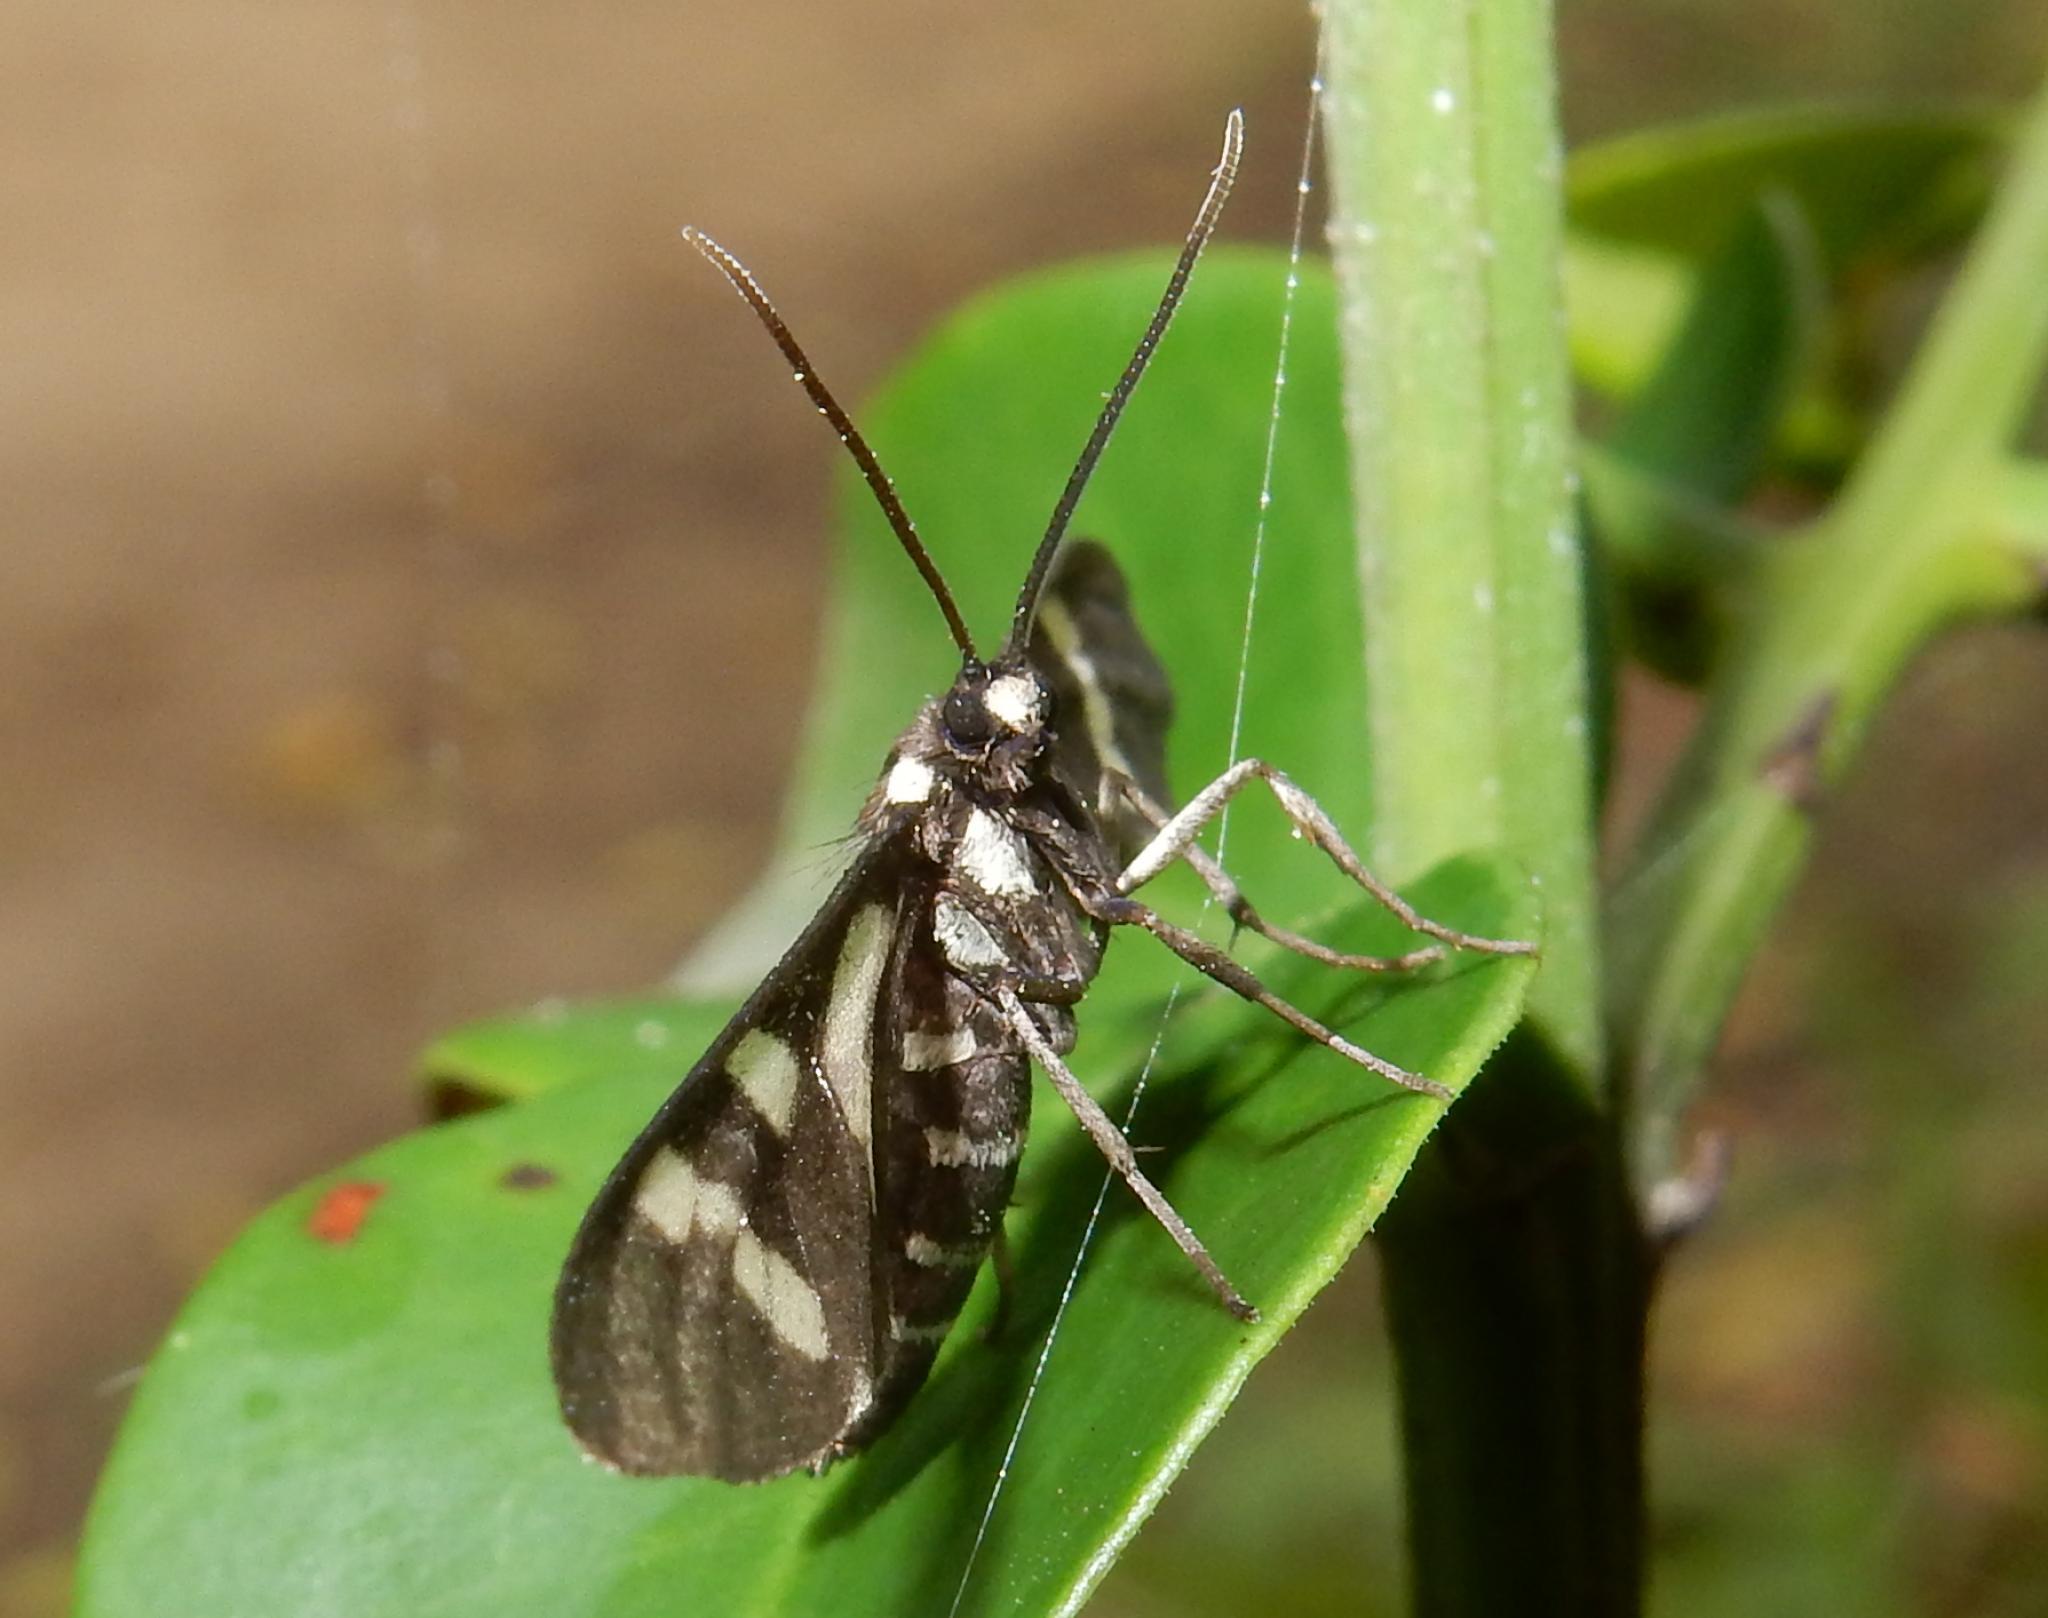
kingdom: Animalia
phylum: Arthropoda
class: Insecta
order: Lepidoptera
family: Erebidae
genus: Ceryx
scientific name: Ceryx toxotes
